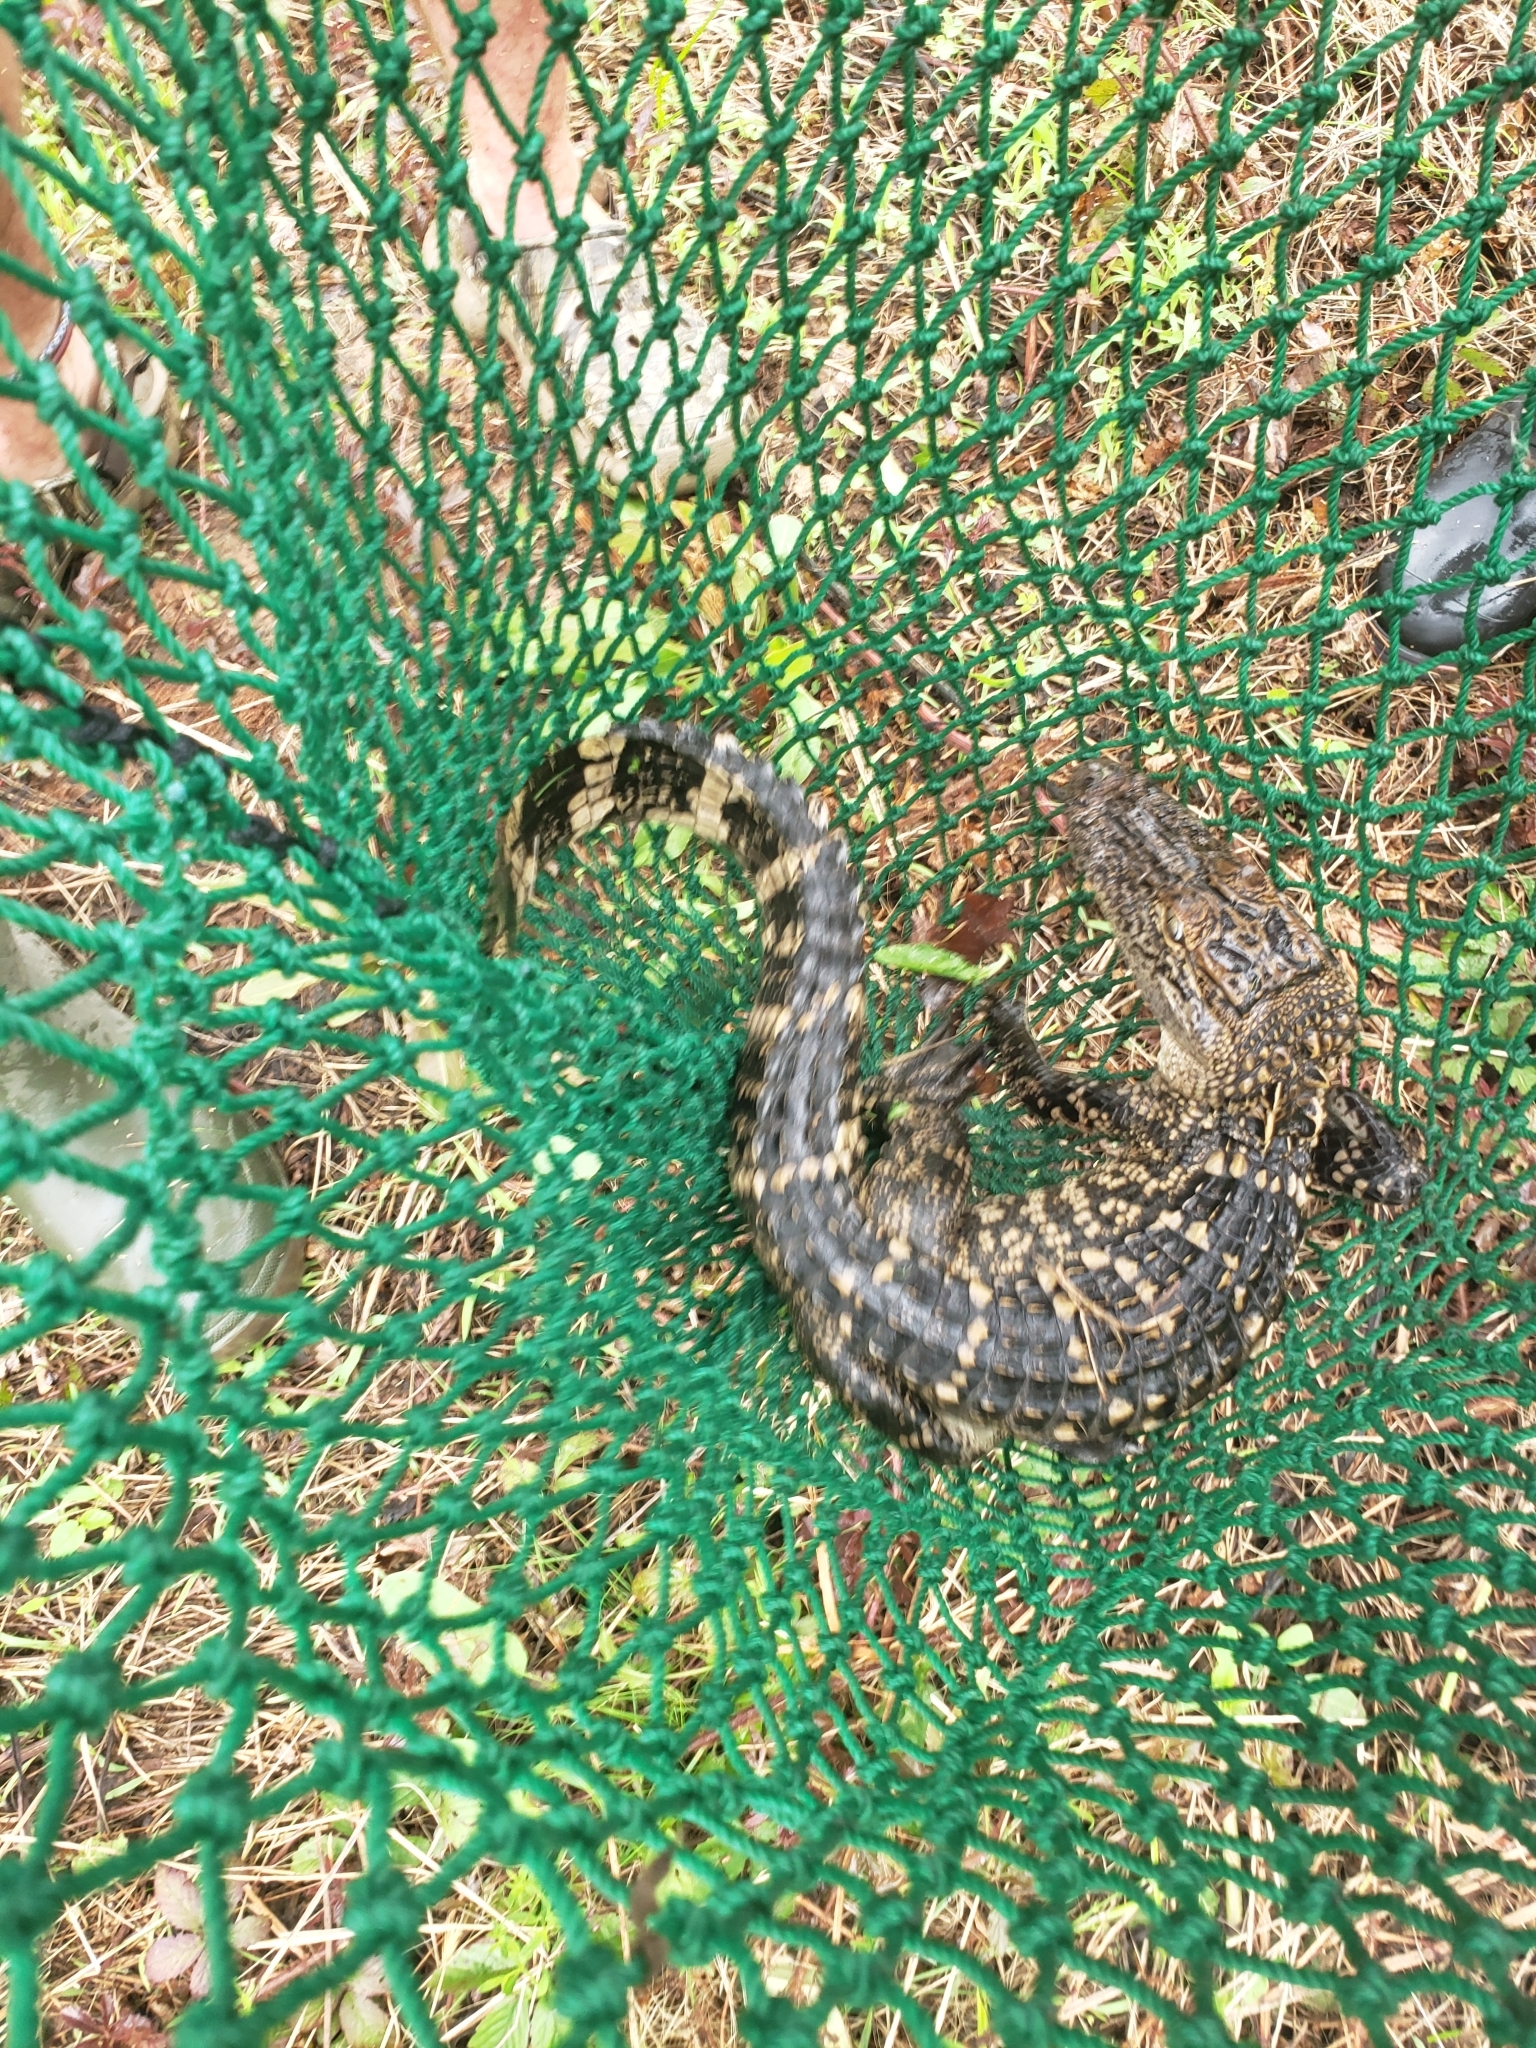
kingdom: Animalia
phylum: Chordata
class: Crocodylia
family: Alligatoridae
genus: Alligator
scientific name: Alligator mississippiensis
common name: American alligator
